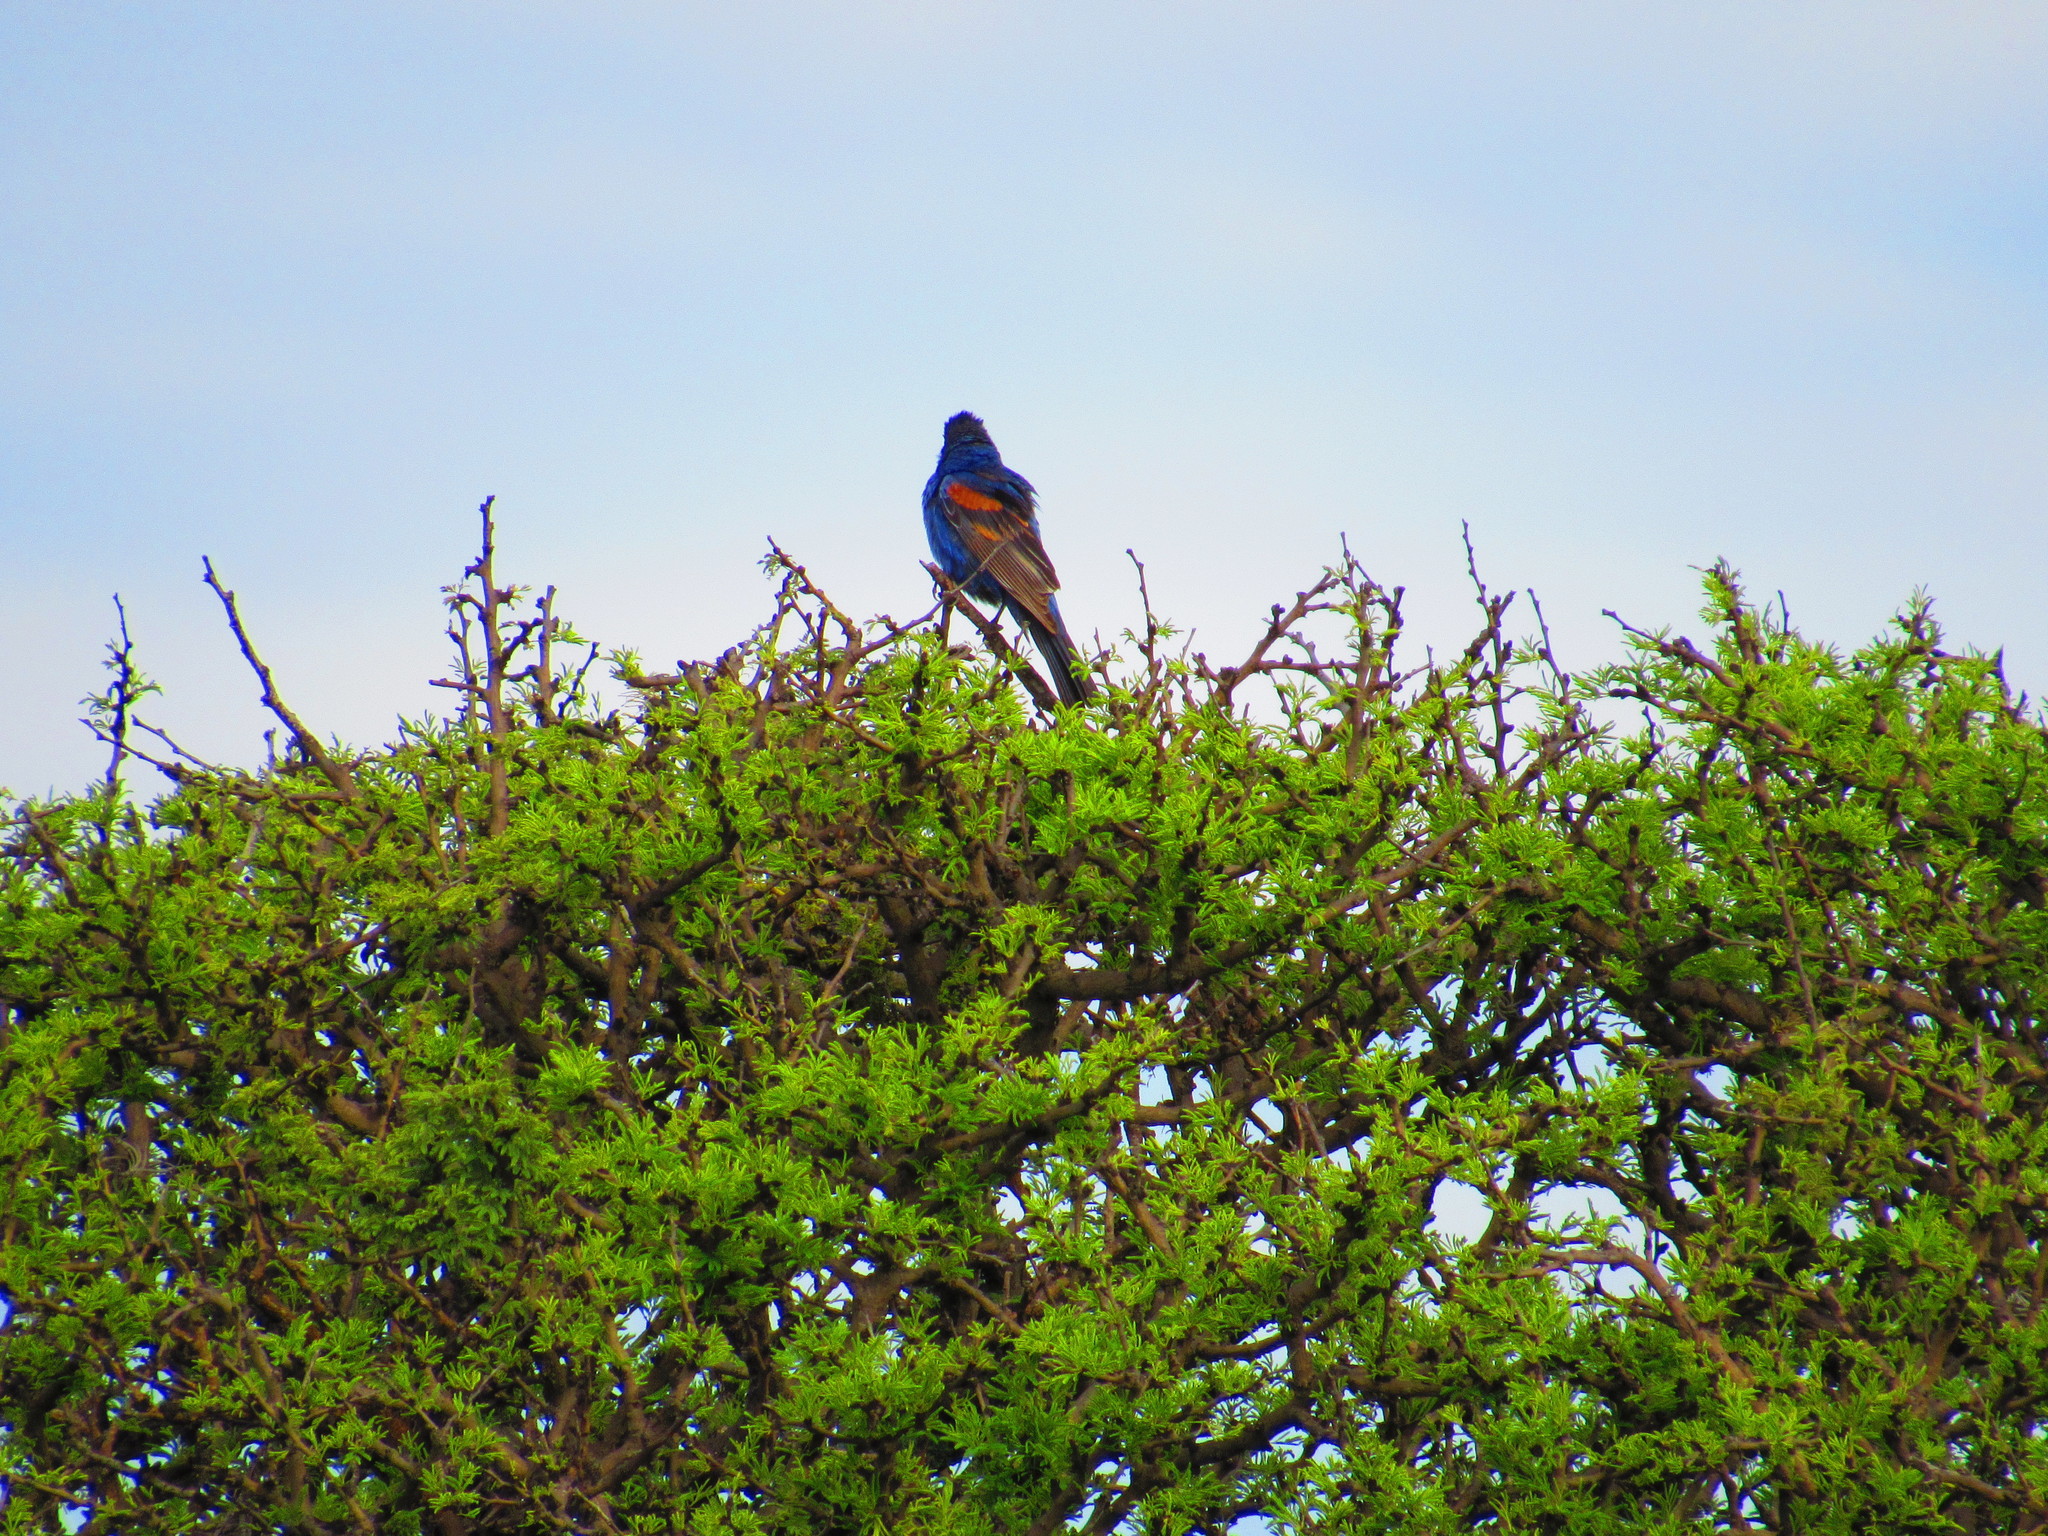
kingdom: Animalia
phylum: Chordata
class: Aves
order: Passeriformes
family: Cardinalidae
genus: Passerina
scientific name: Passerina caerulea
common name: Blue grosbeak
